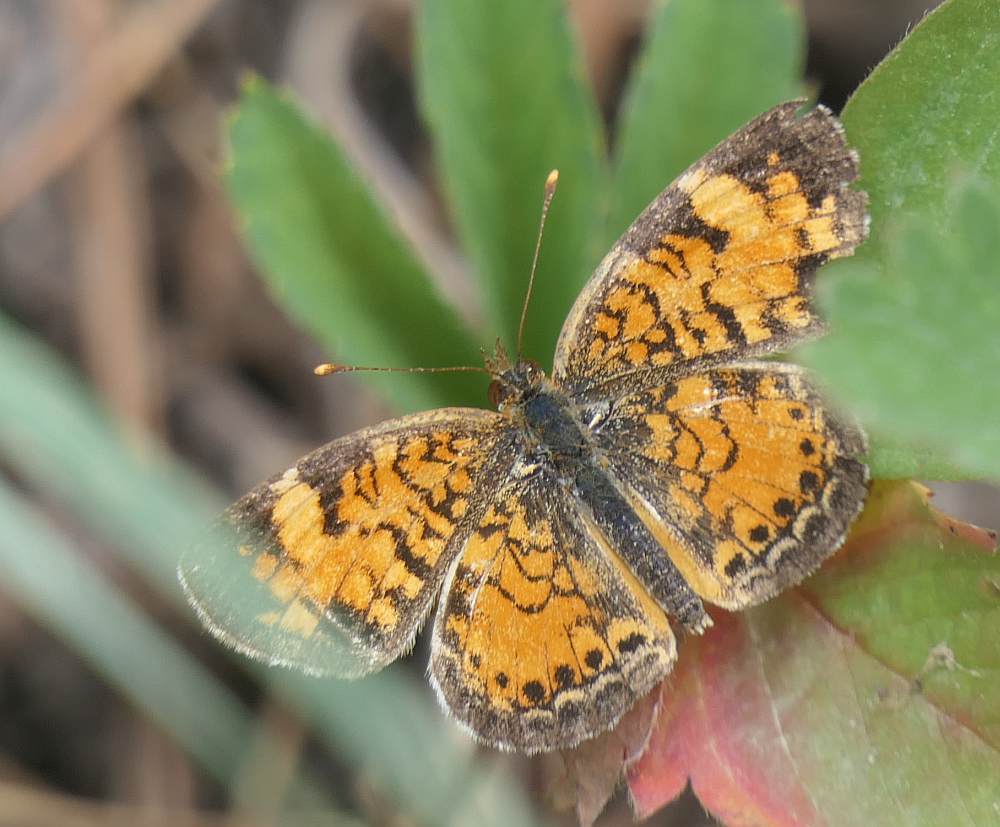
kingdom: Animalia
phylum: Arthropoda
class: Insecta
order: Lepidoptera
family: Nymphalidae
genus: Phyciodes
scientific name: Phyciodes tharos
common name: Pearl crescent
